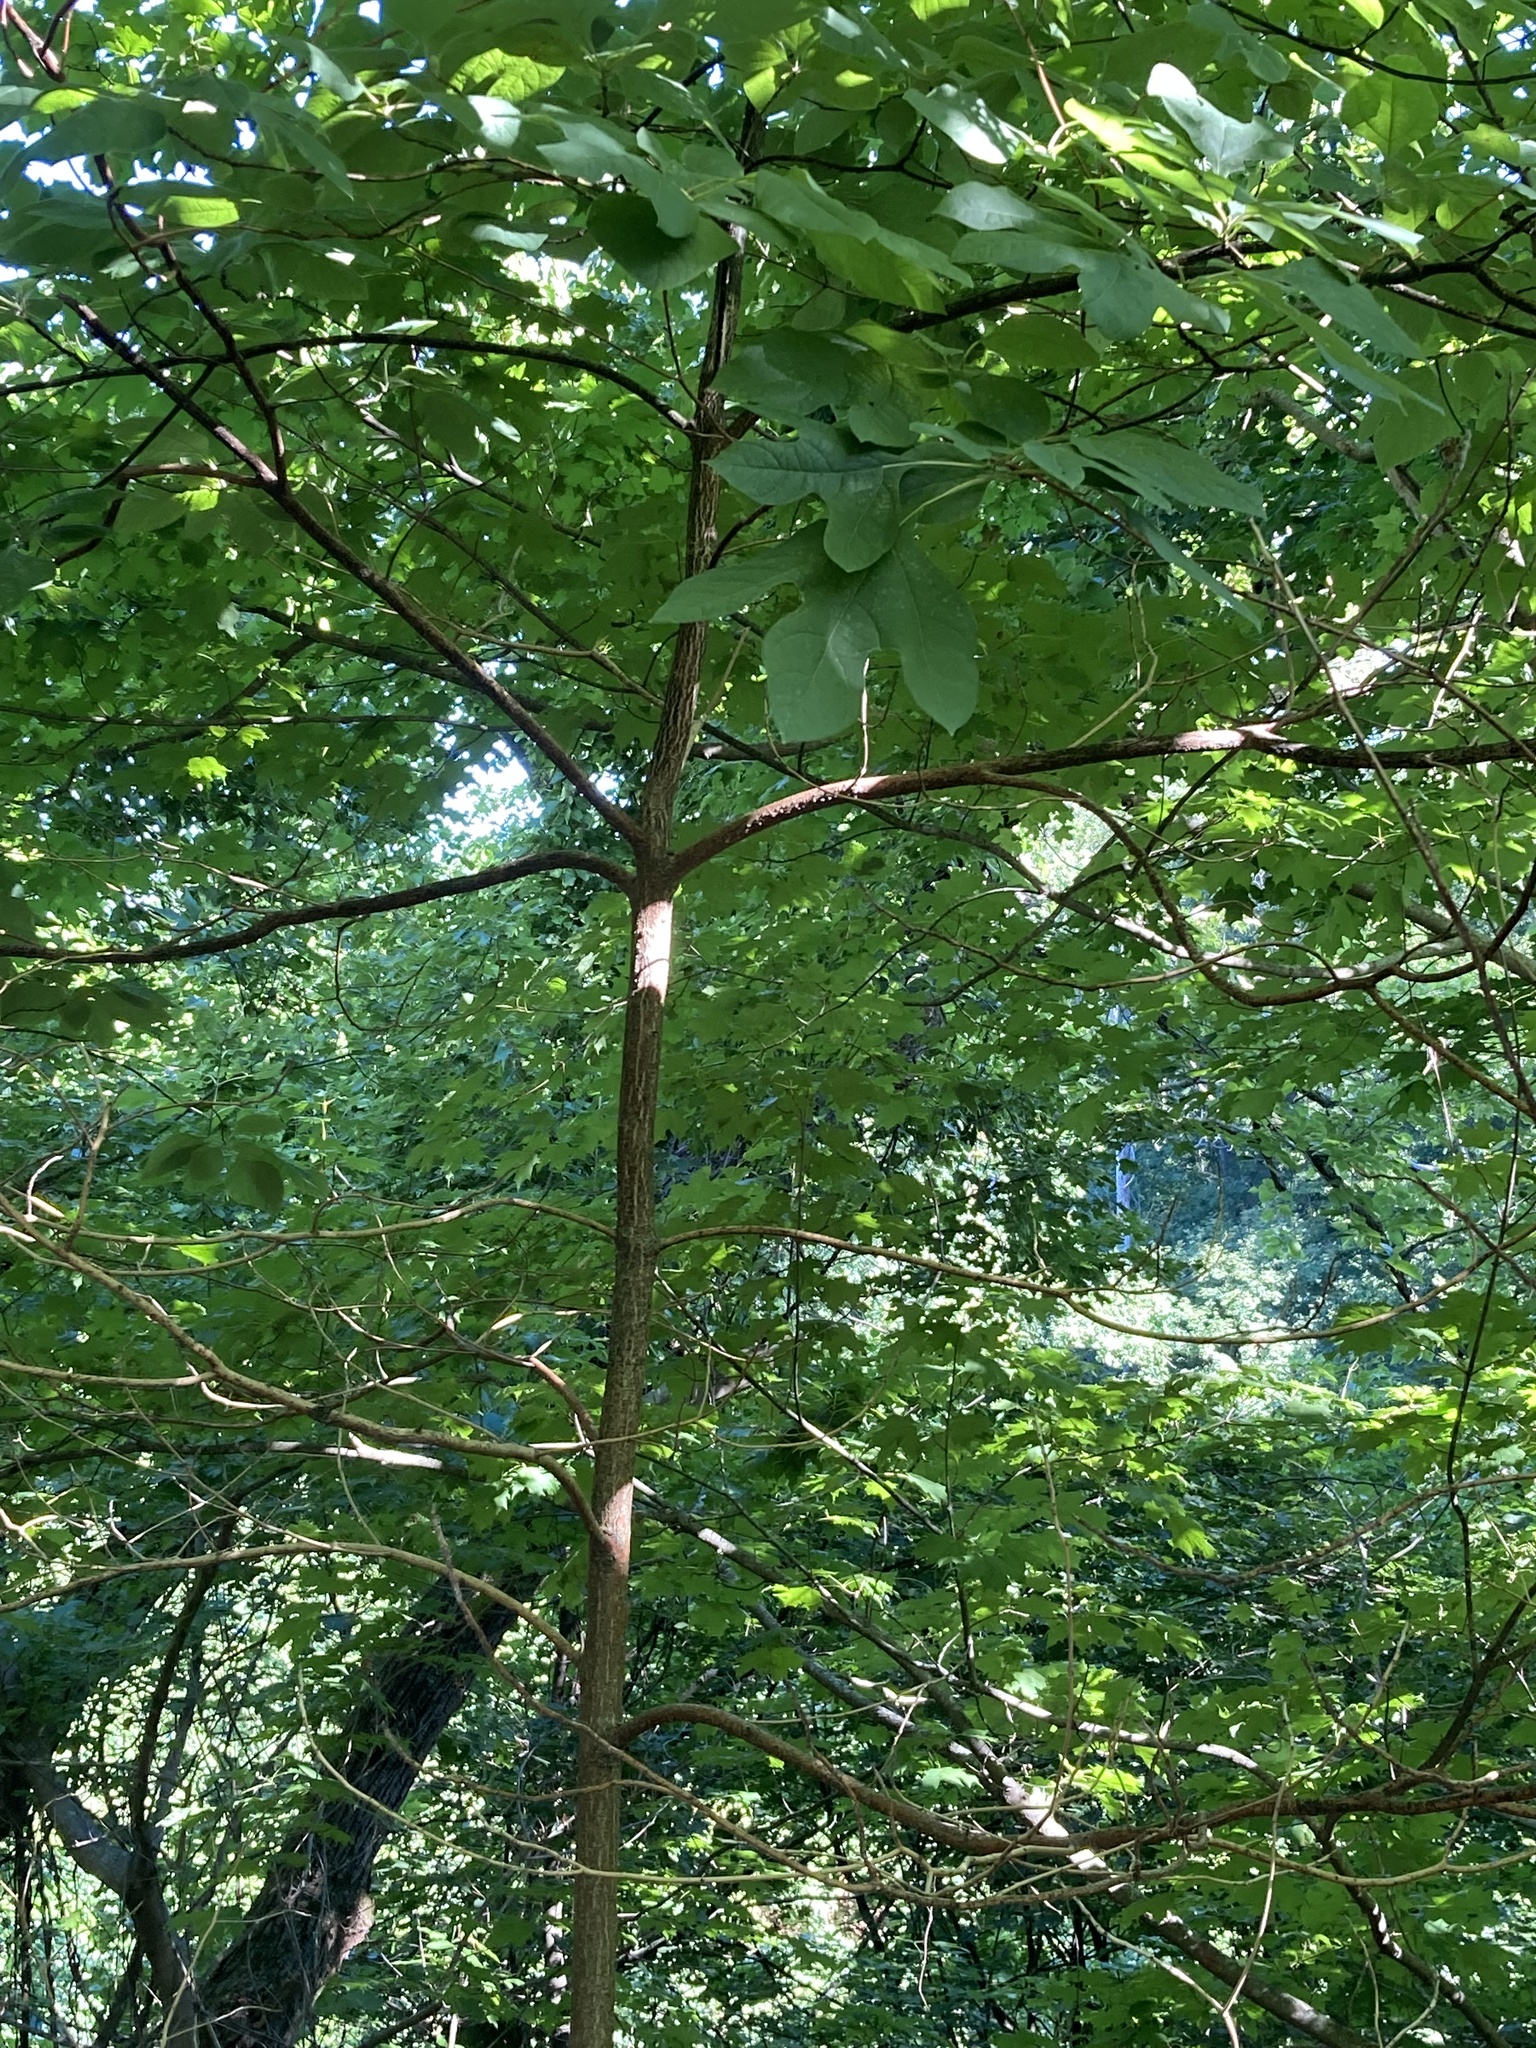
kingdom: Plantae
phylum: Tracheophyta
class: Magnoliopsida
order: Laurales
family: Lauraceae
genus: Sassafras
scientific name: Sassafras albidum
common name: Sassafras
